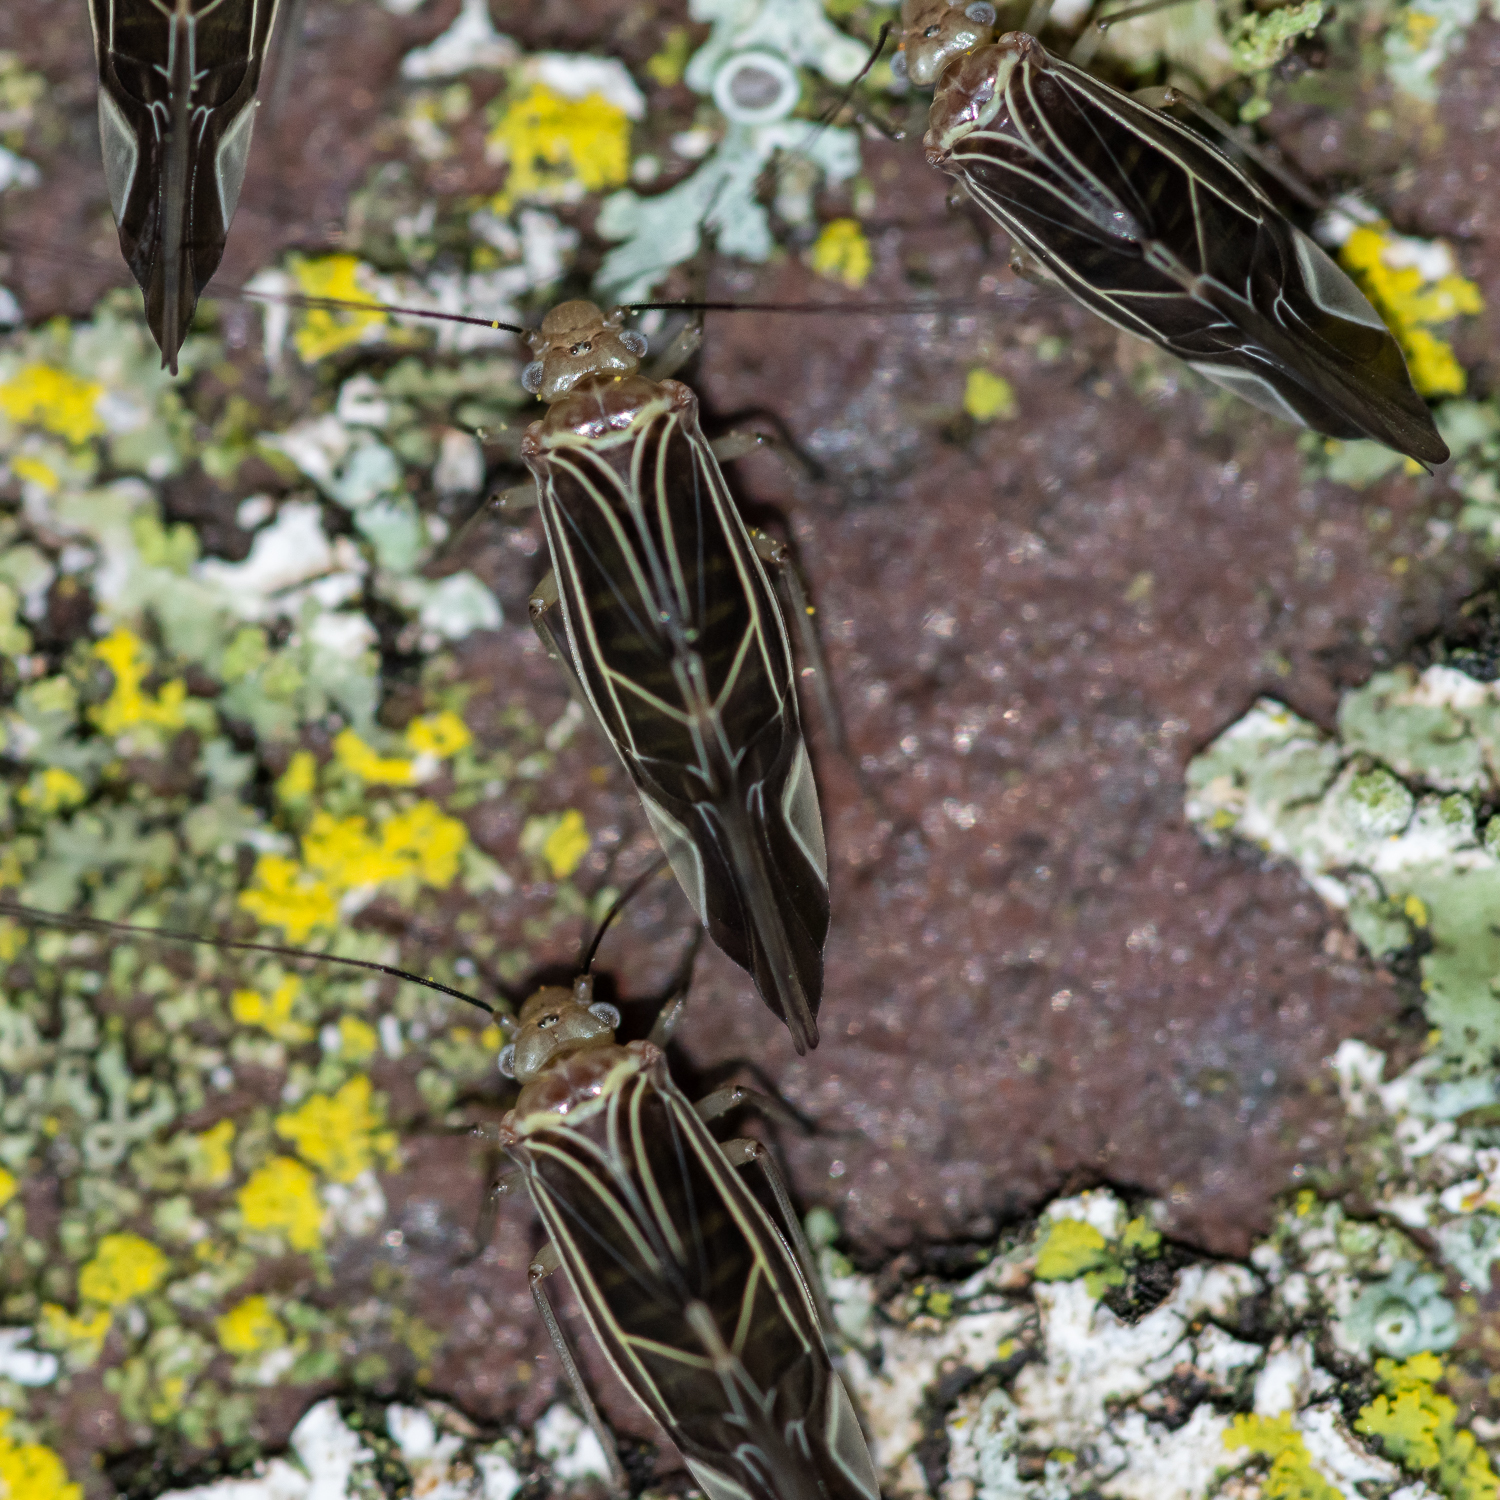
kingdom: Animalia
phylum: Arthropoda
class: Insecta
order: Psocodea
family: Psocidae
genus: Cerastipsocus
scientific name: Cerastipsocus venosus
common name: Tree cattle
